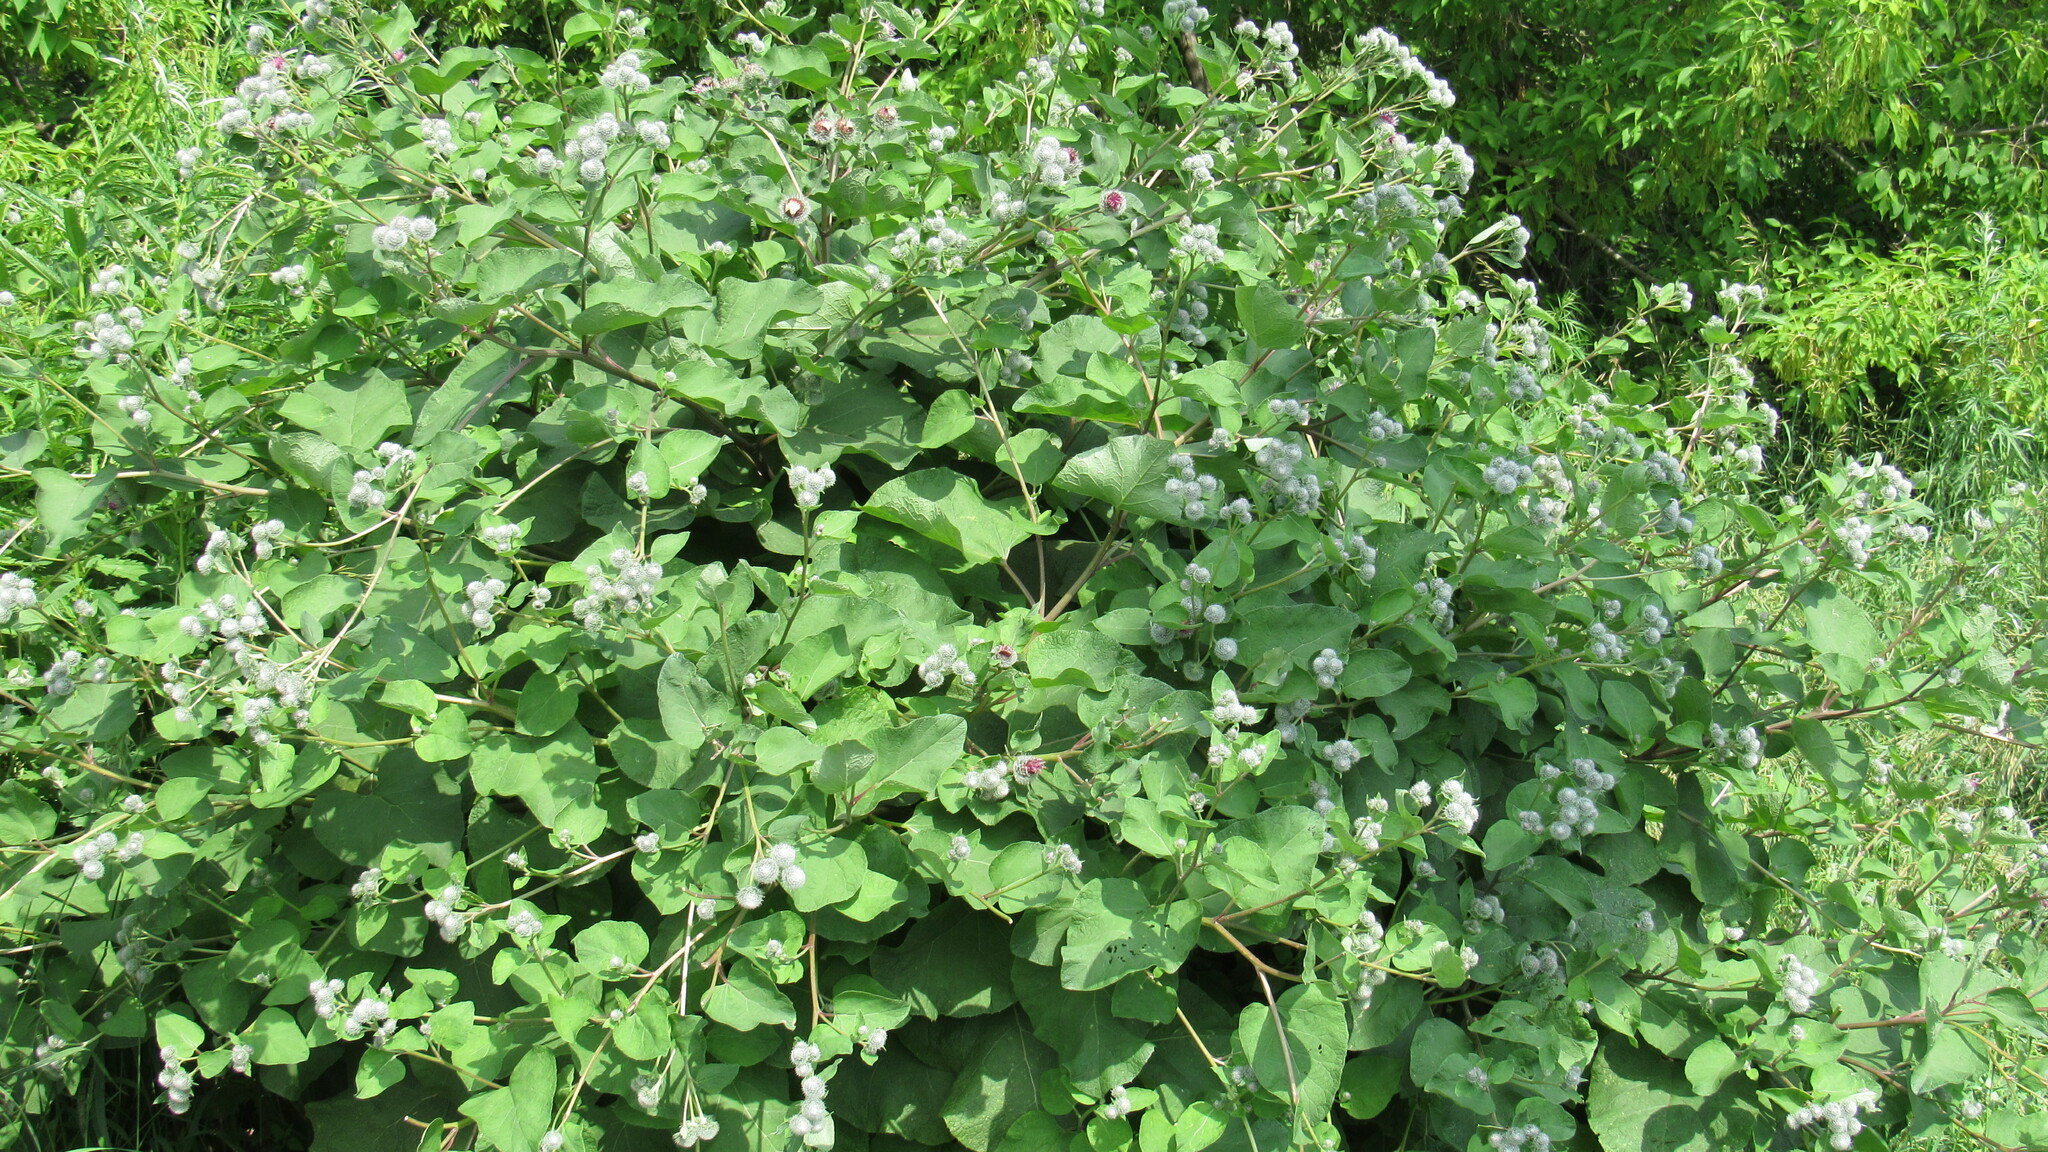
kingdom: Plantae
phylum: Tracheophyta
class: Magnoliopsida
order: Asterales
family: Asteraceae
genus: Arctium
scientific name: Arctium tomentosum
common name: Woolly burdock
